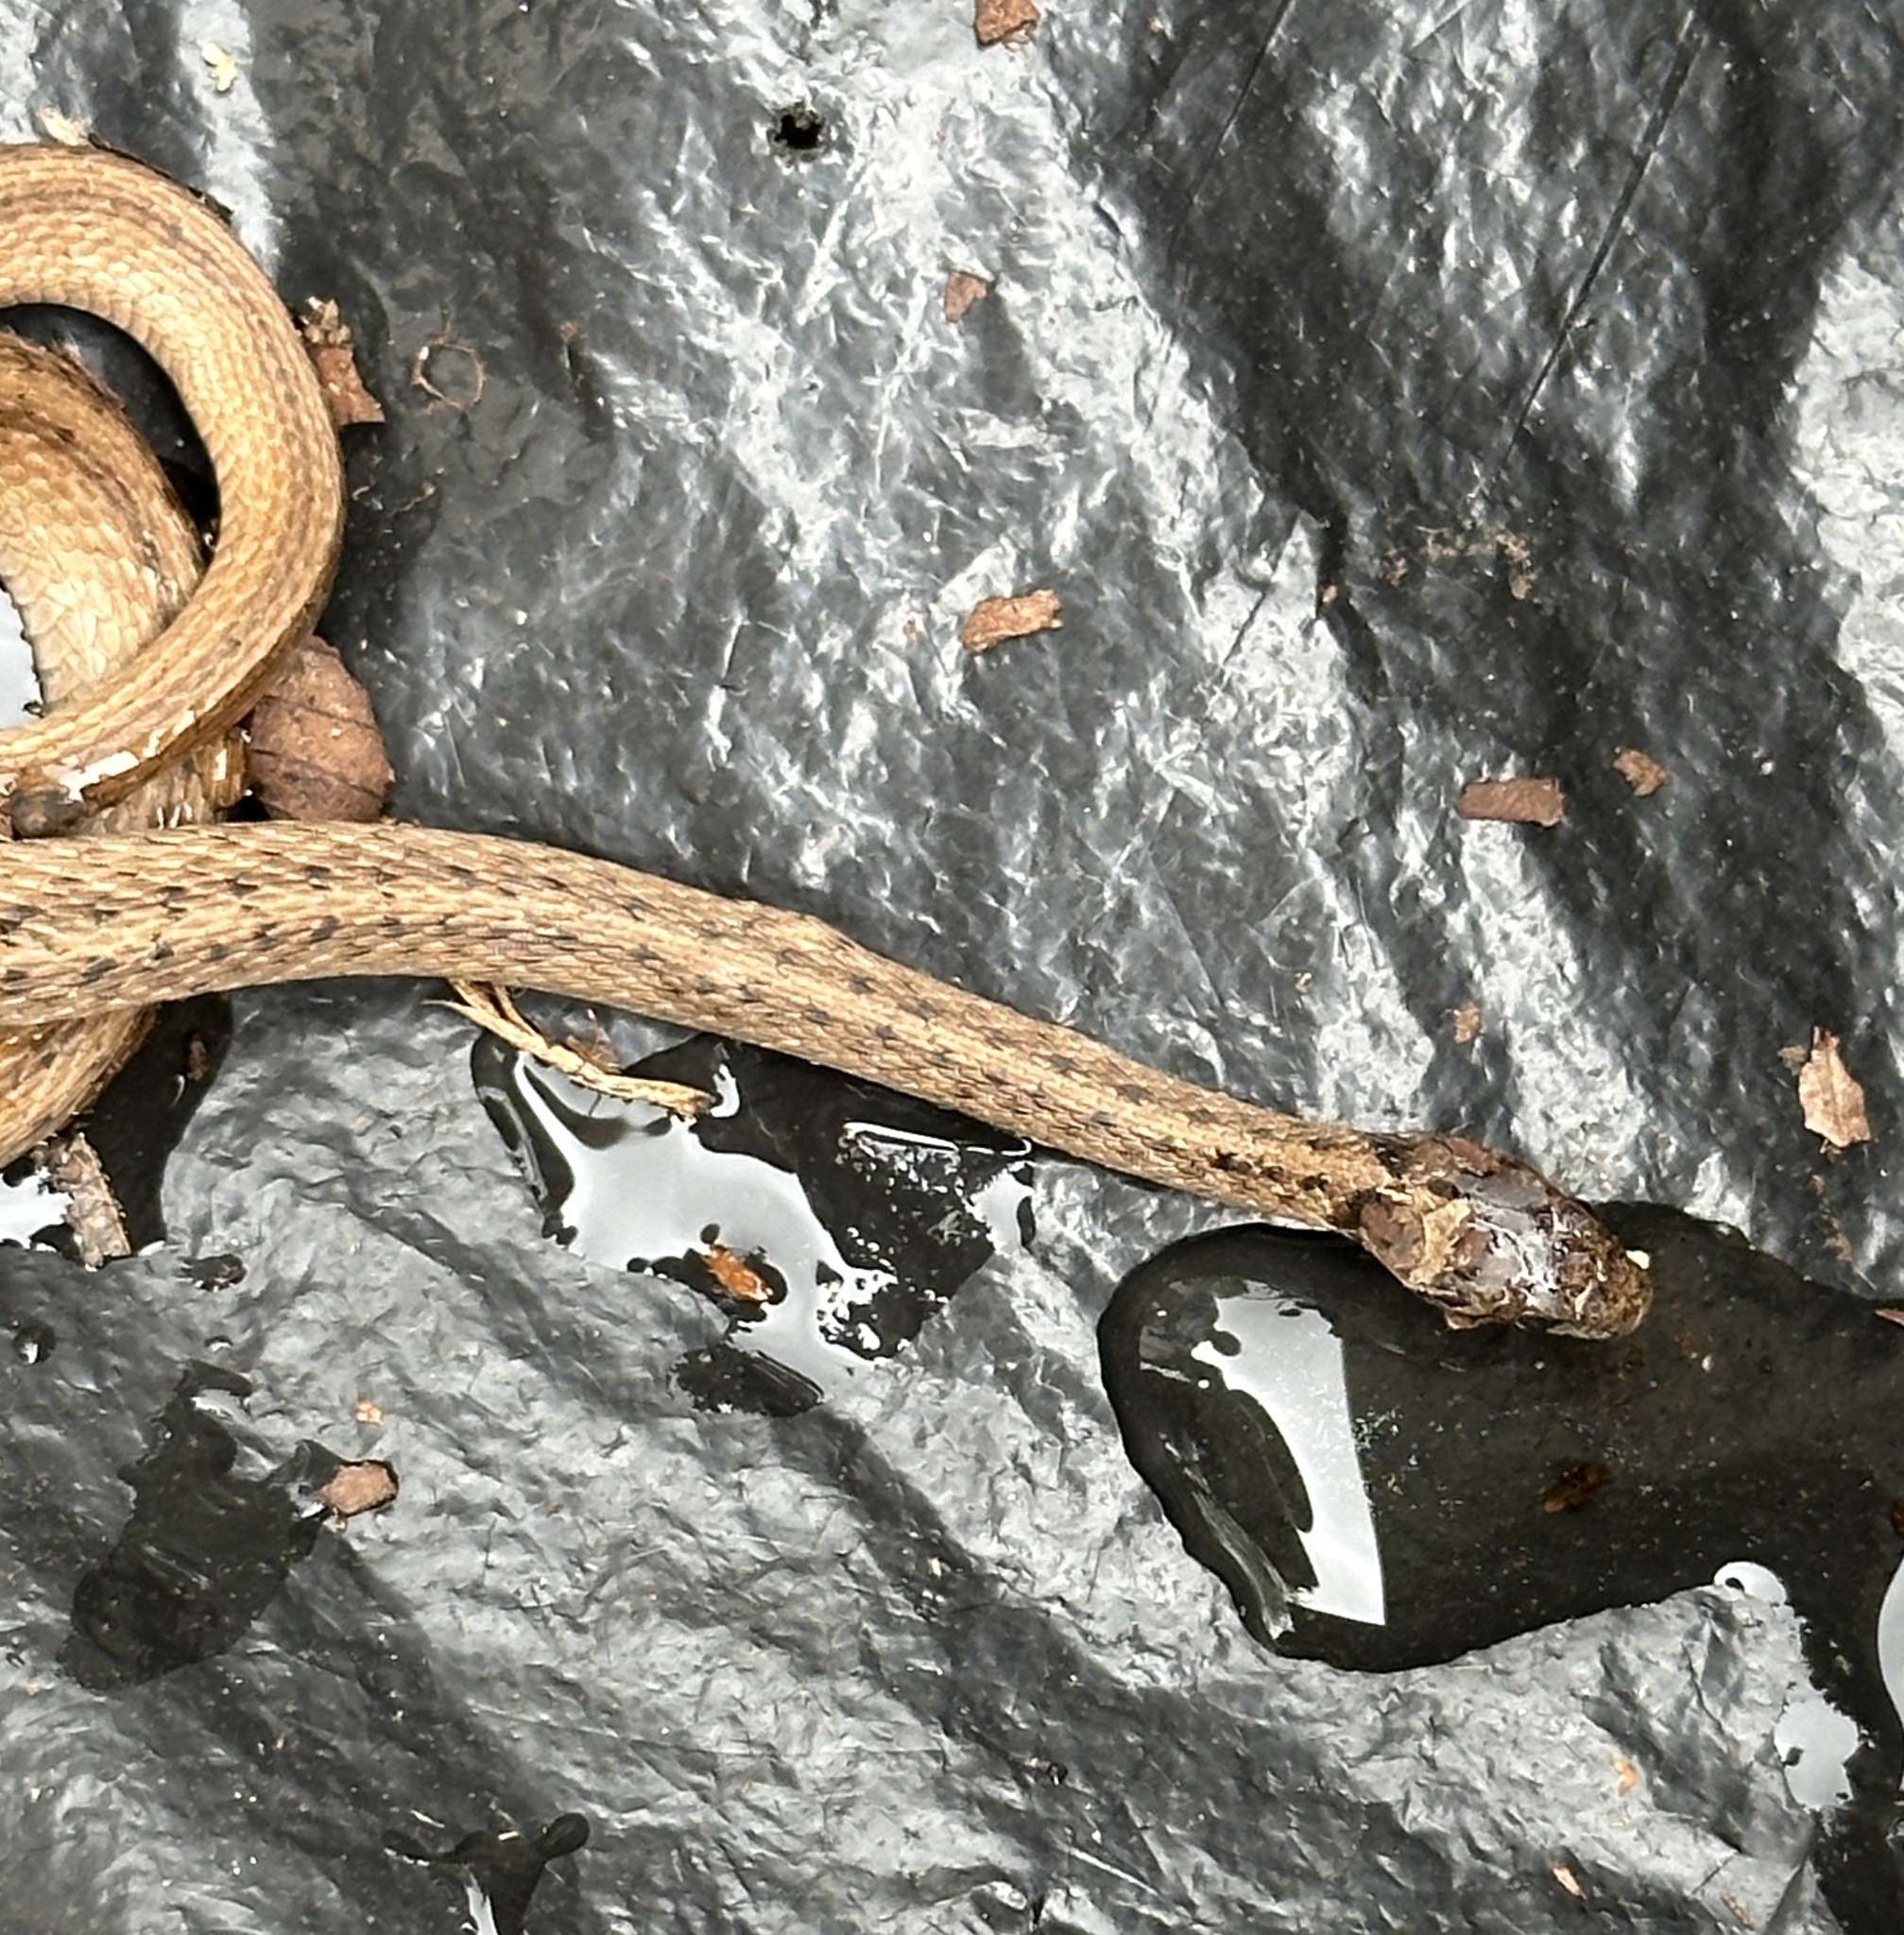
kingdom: Animalia
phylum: Chordata
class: Squamata
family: Colubridae
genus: Storeria
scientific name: Storeria dekayi
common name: (dekay’s) brown snake
